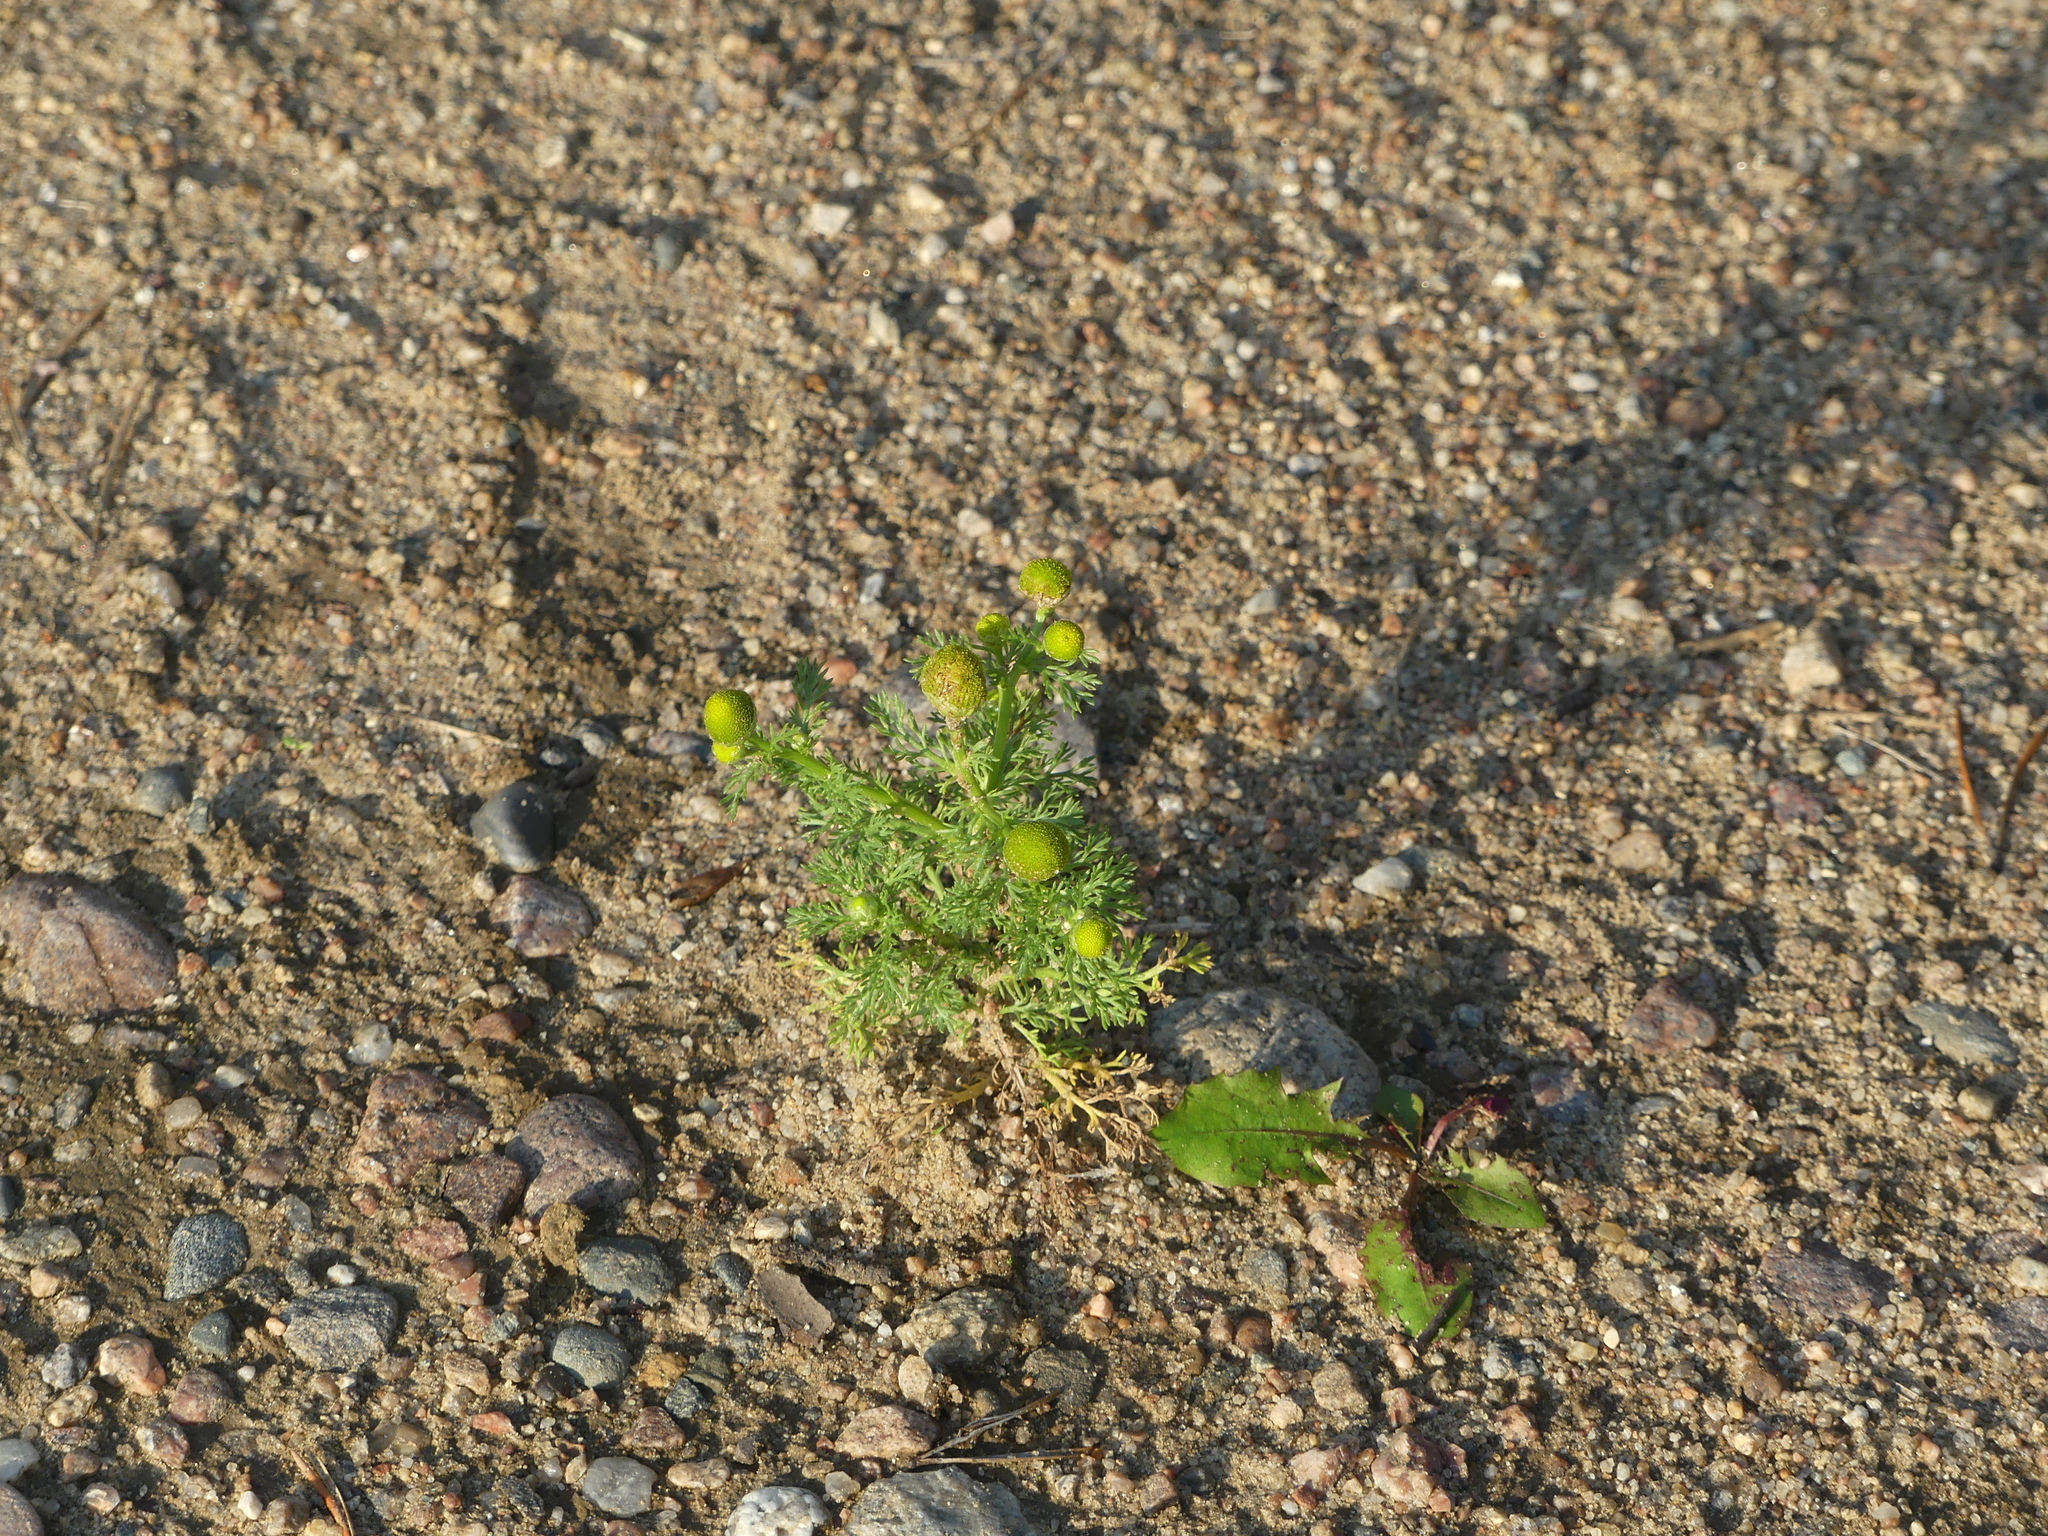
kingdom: Plantae
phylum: Tracheophyta
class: Magnoliopsida
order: Asterales
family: Asteraceae
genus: Matricaria
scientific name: Matricaria discoidea
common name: Disc mayweed
